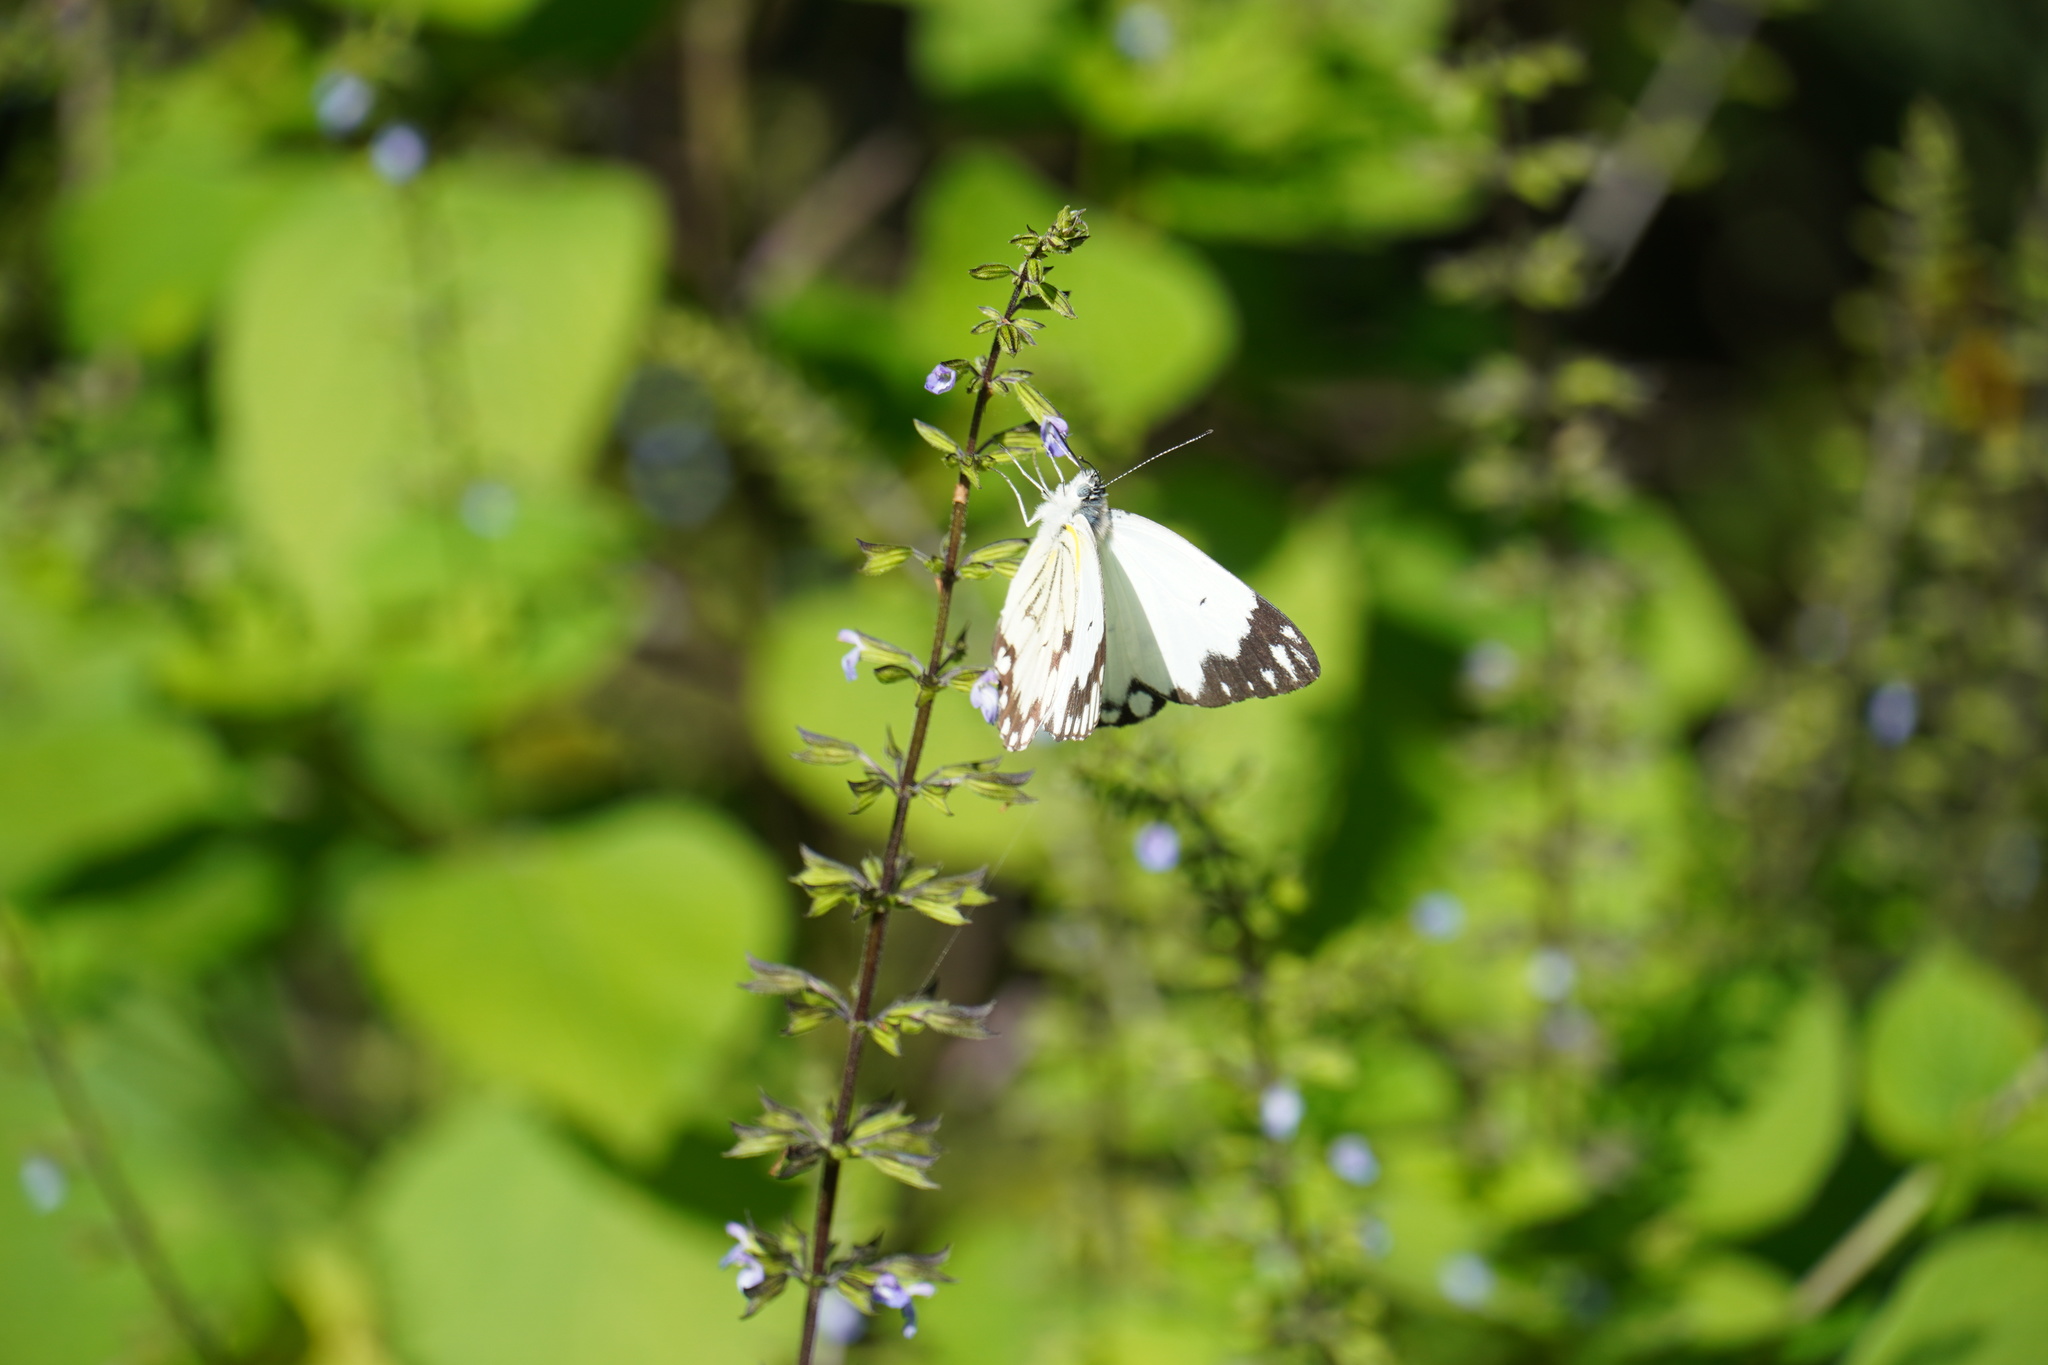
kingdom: Animalia
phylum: Arthropoda
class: Insecta
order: Lepidoptera
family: Pieridae
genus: Belenois
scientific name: Belenois aurota
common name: Brown-veined white
